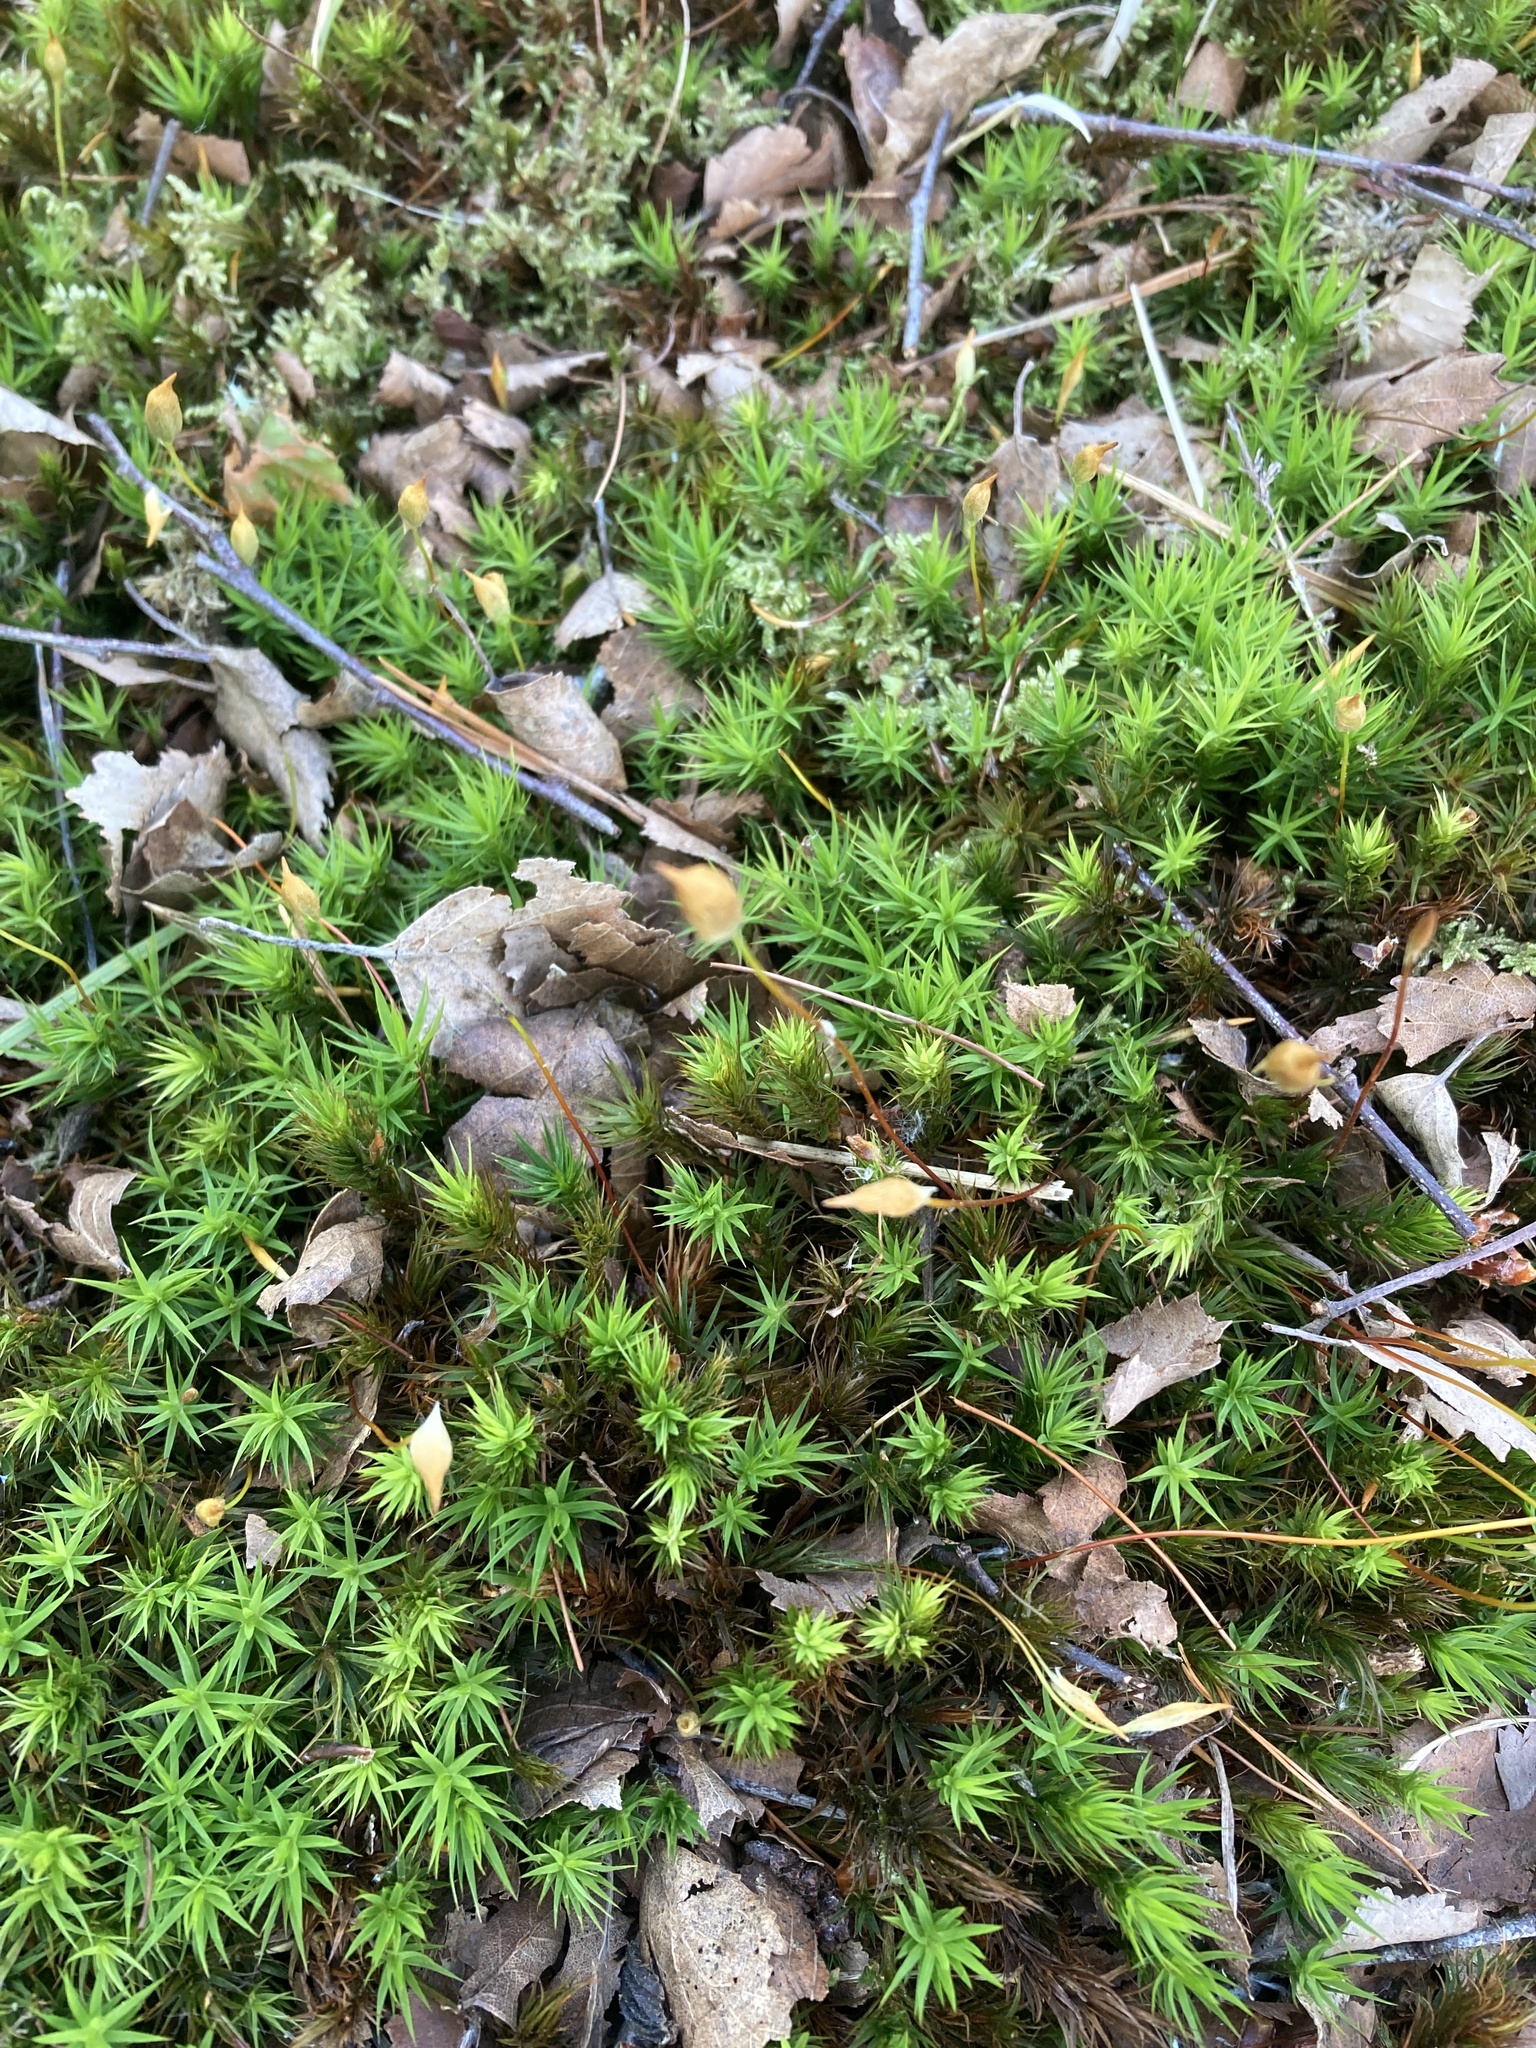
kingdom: Plantae
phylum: Bryophyta
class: Polytrichopsida
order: Polytrichales
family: Polytrichaceae
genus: Polytrichum
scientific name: Polytrichum formosum
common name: Bank haircap moss
